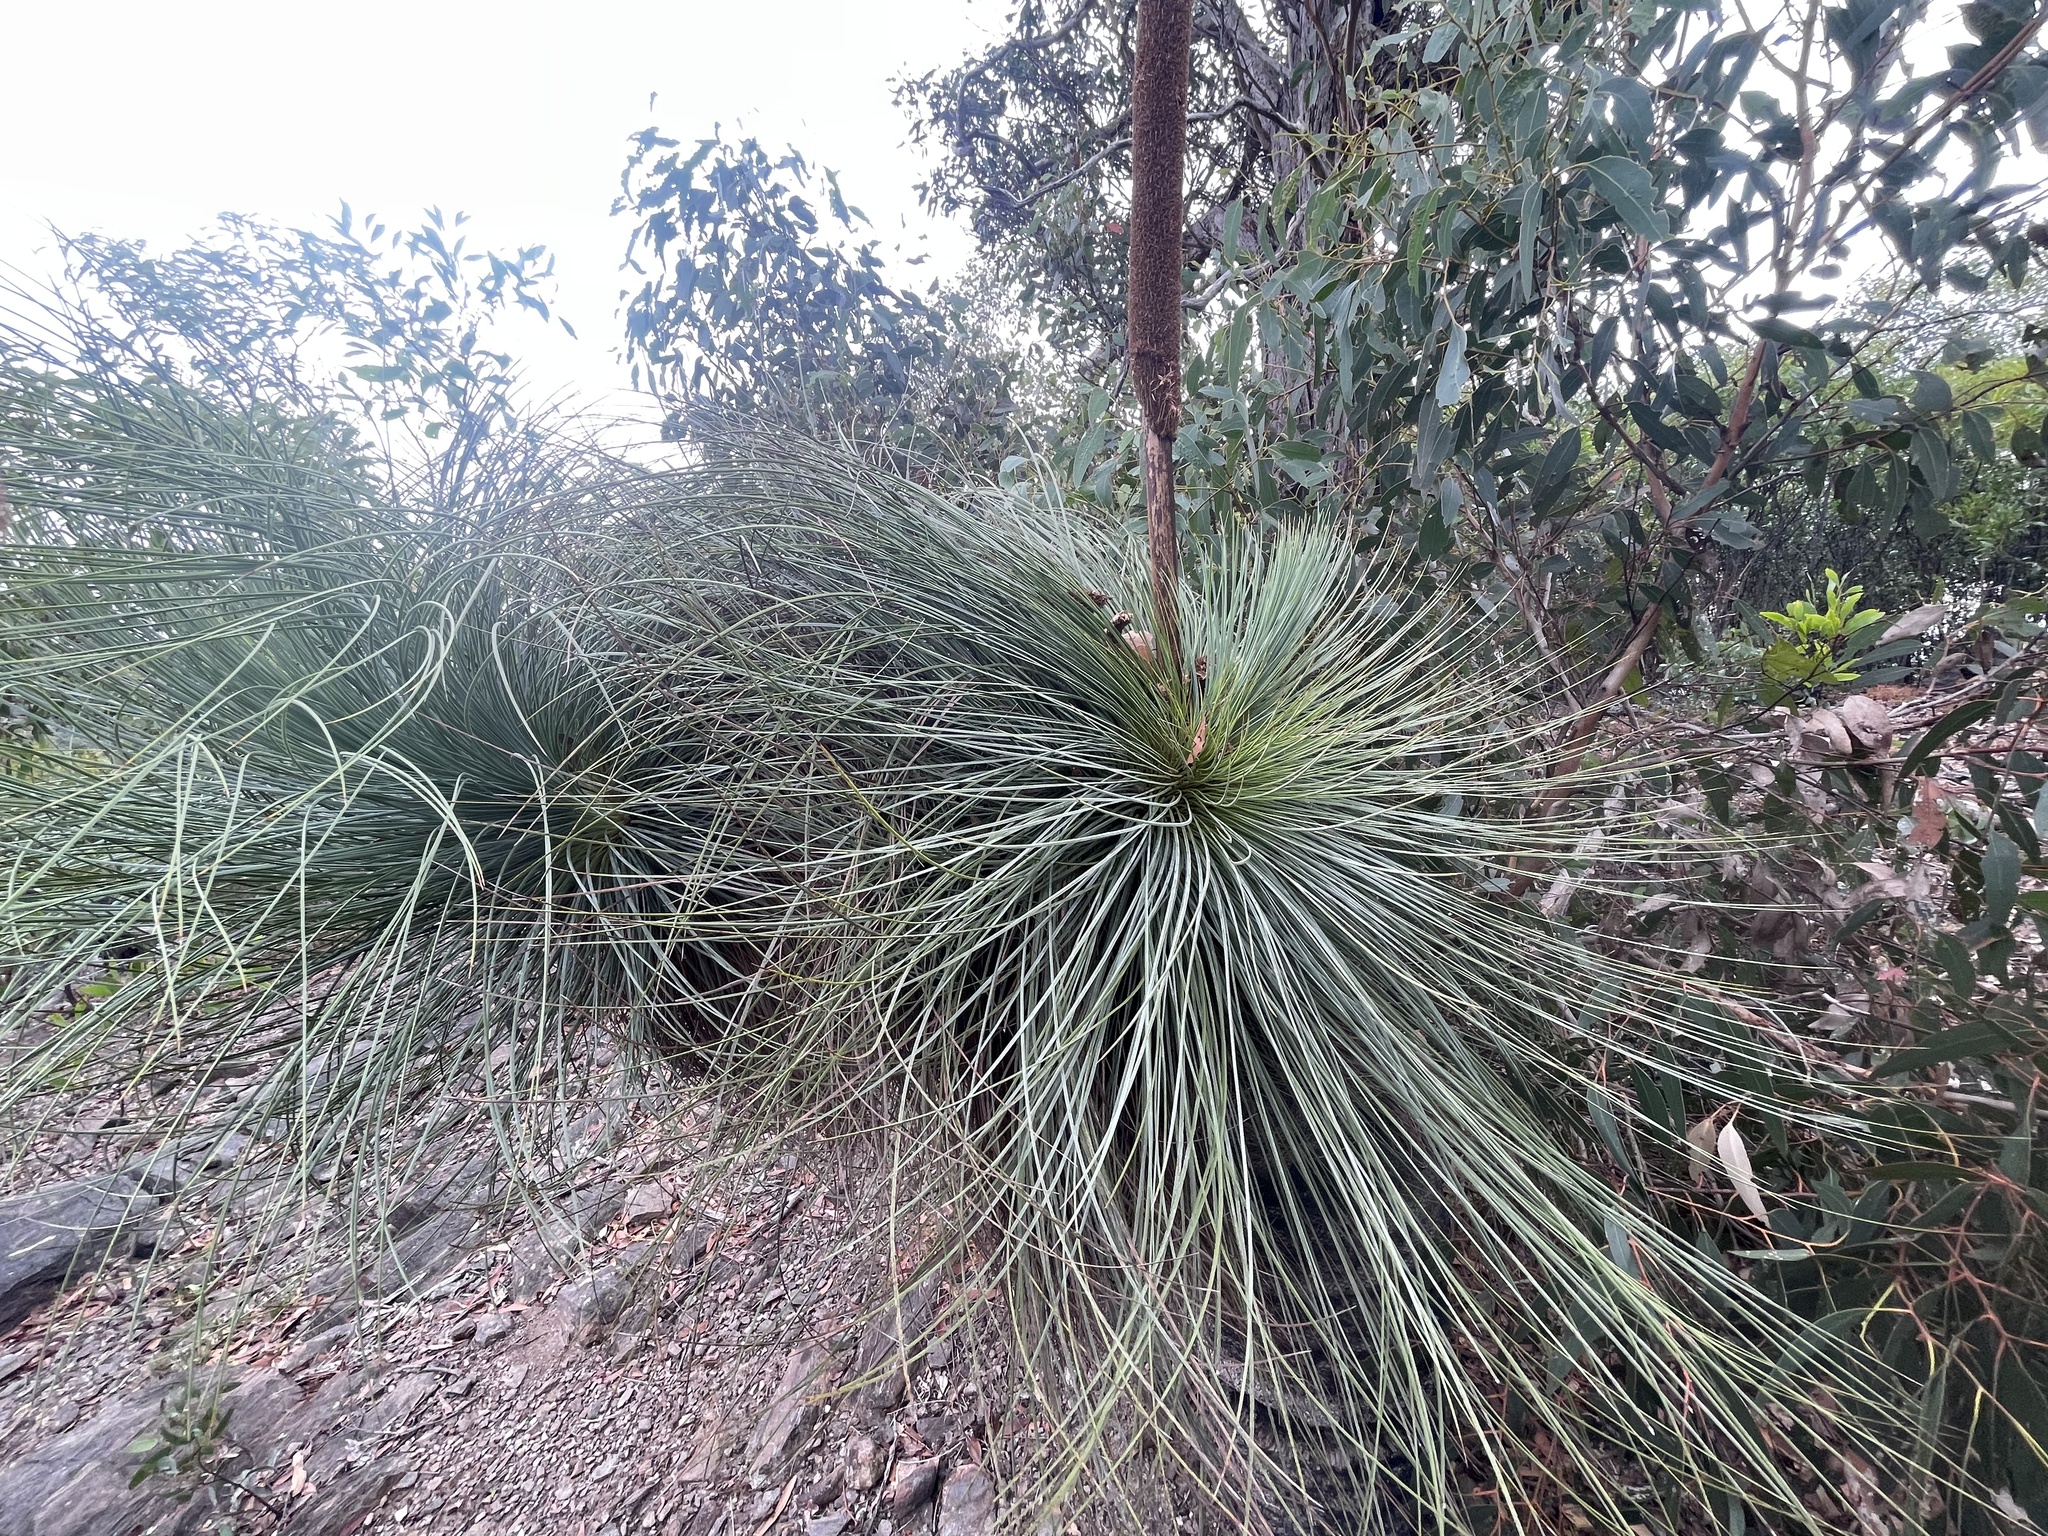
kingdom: Plantae
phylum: Tracheophyta
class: Liliopsida
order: Asparagales
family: Asphodelaceae
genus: Xanthorrhoea
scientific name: Xanthorrhoea australis
